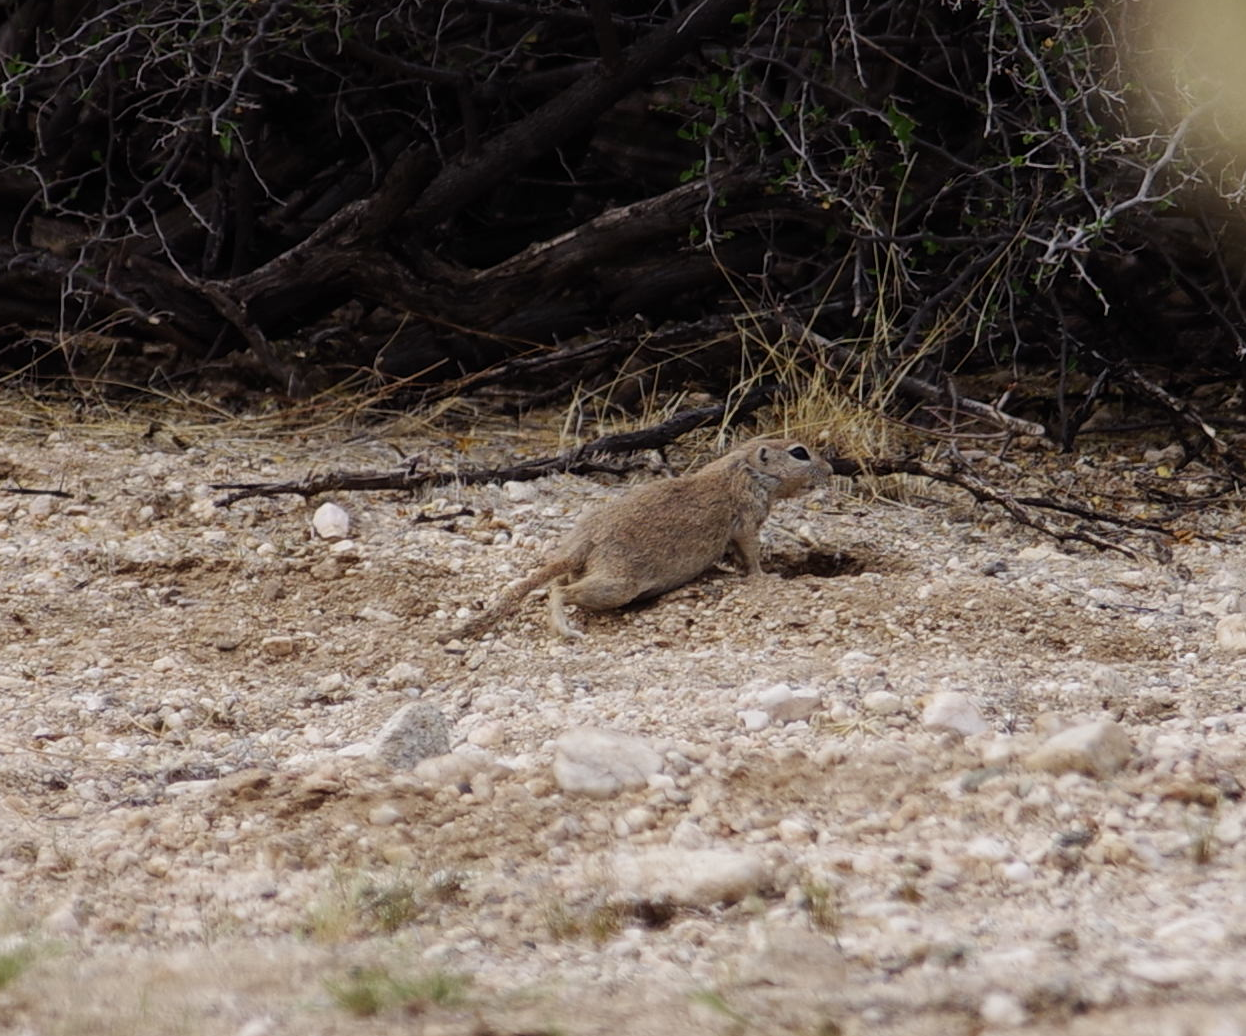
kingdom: Animalia
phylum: Chordata
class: Mammalia
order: Rodentia
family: Sciuridae
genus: Xerospermophilus
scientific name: Xerospermophilus tereticaudus
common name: Round-tailed ground squirrel
